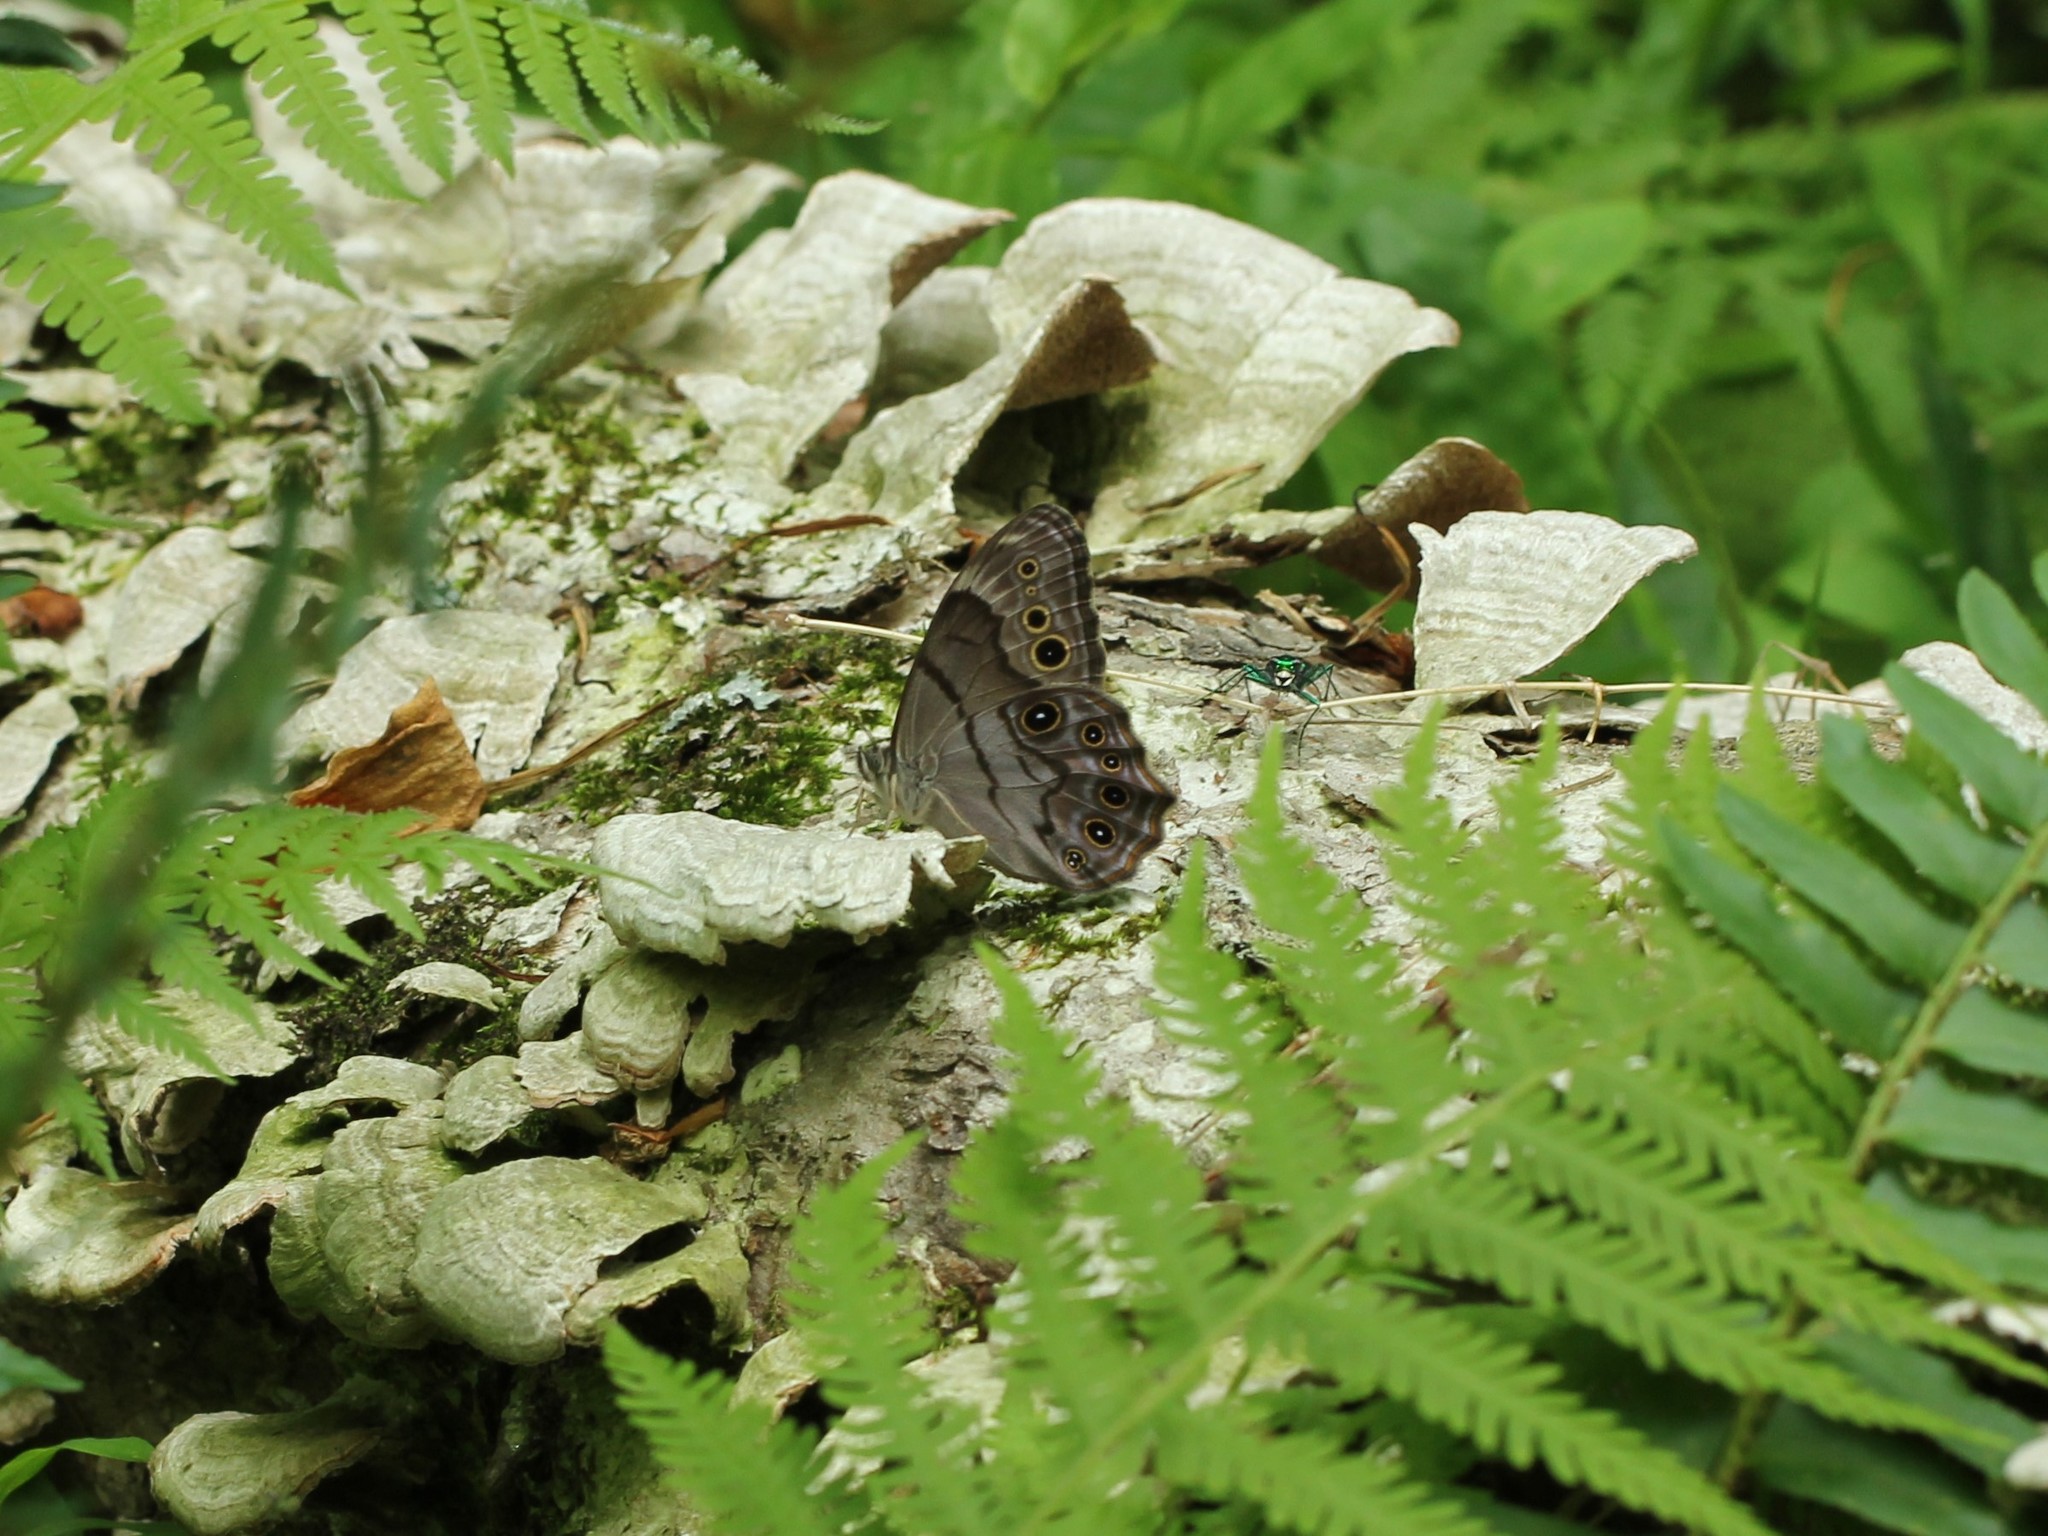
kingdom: Animalia
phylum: Arthropoda
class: Insecta
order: Lepidoptera
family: Nymphalidae
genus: Lethe
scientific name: Lethe anthedon
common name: Northern pearly-eye
